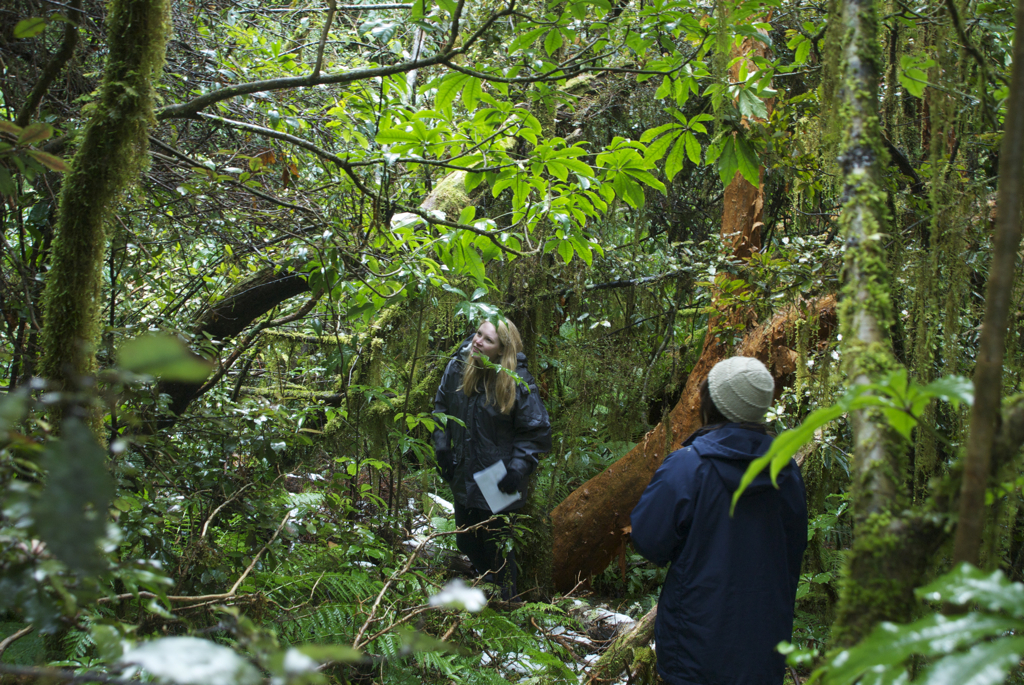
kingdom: Plantae
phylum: Tracheophyta
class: Magnoliopsida
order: Myrtales
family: Onagraceae
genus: Fuchsia
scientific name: Fuchsia excorticata
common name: Tree fuchsia
